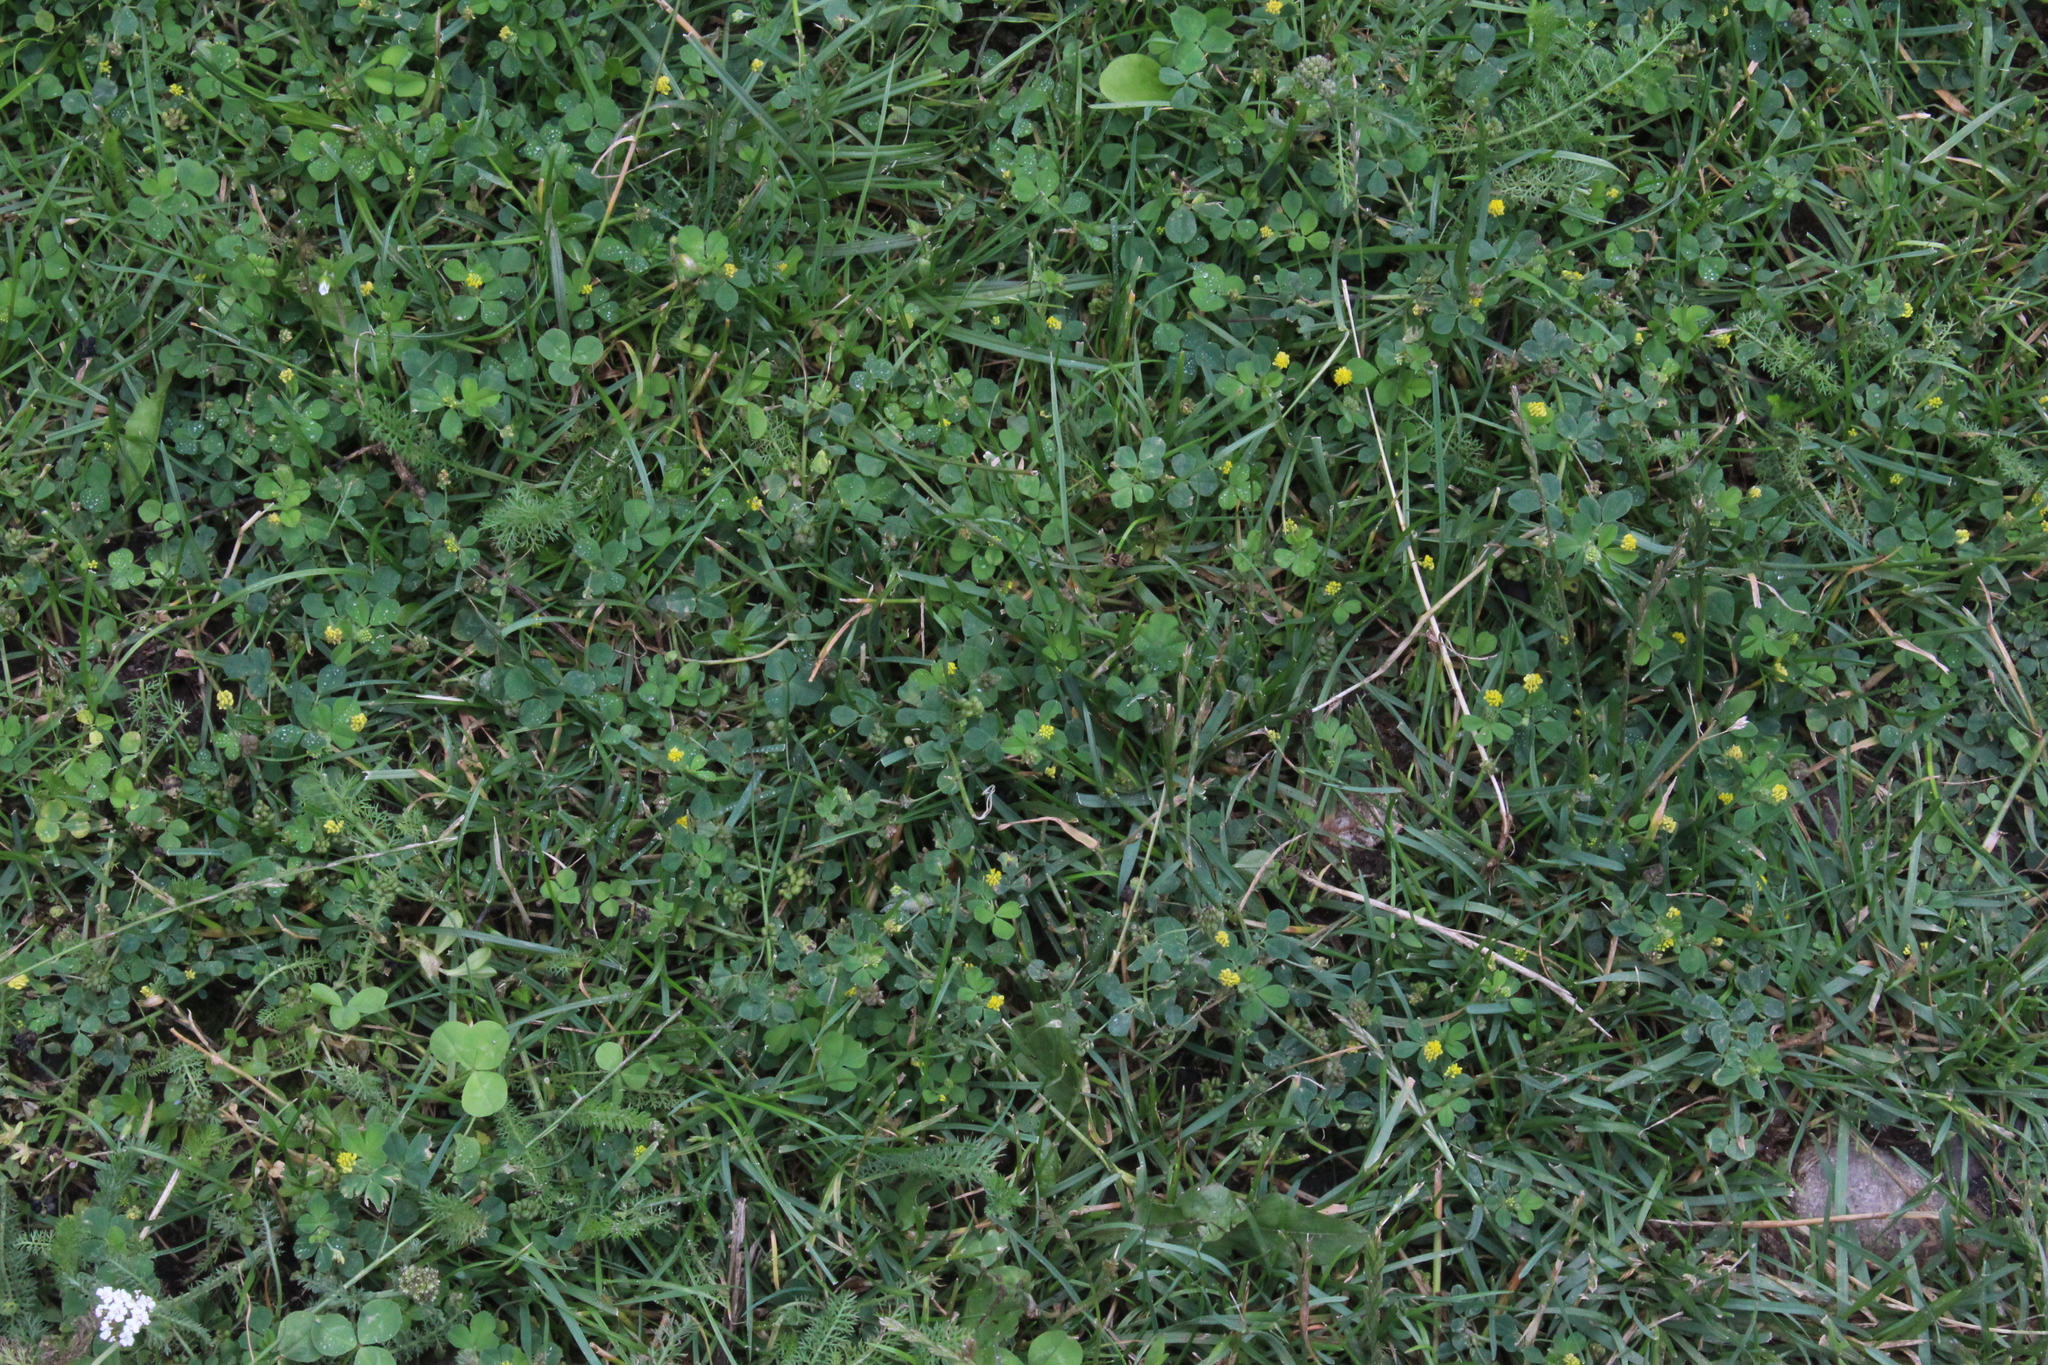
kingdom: Plantae
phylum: Tracheophyta
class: Magnoliopsida
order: Fabales
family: Fabaceae
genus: Medicago
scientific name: Medicago lupulina
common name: Black medick
